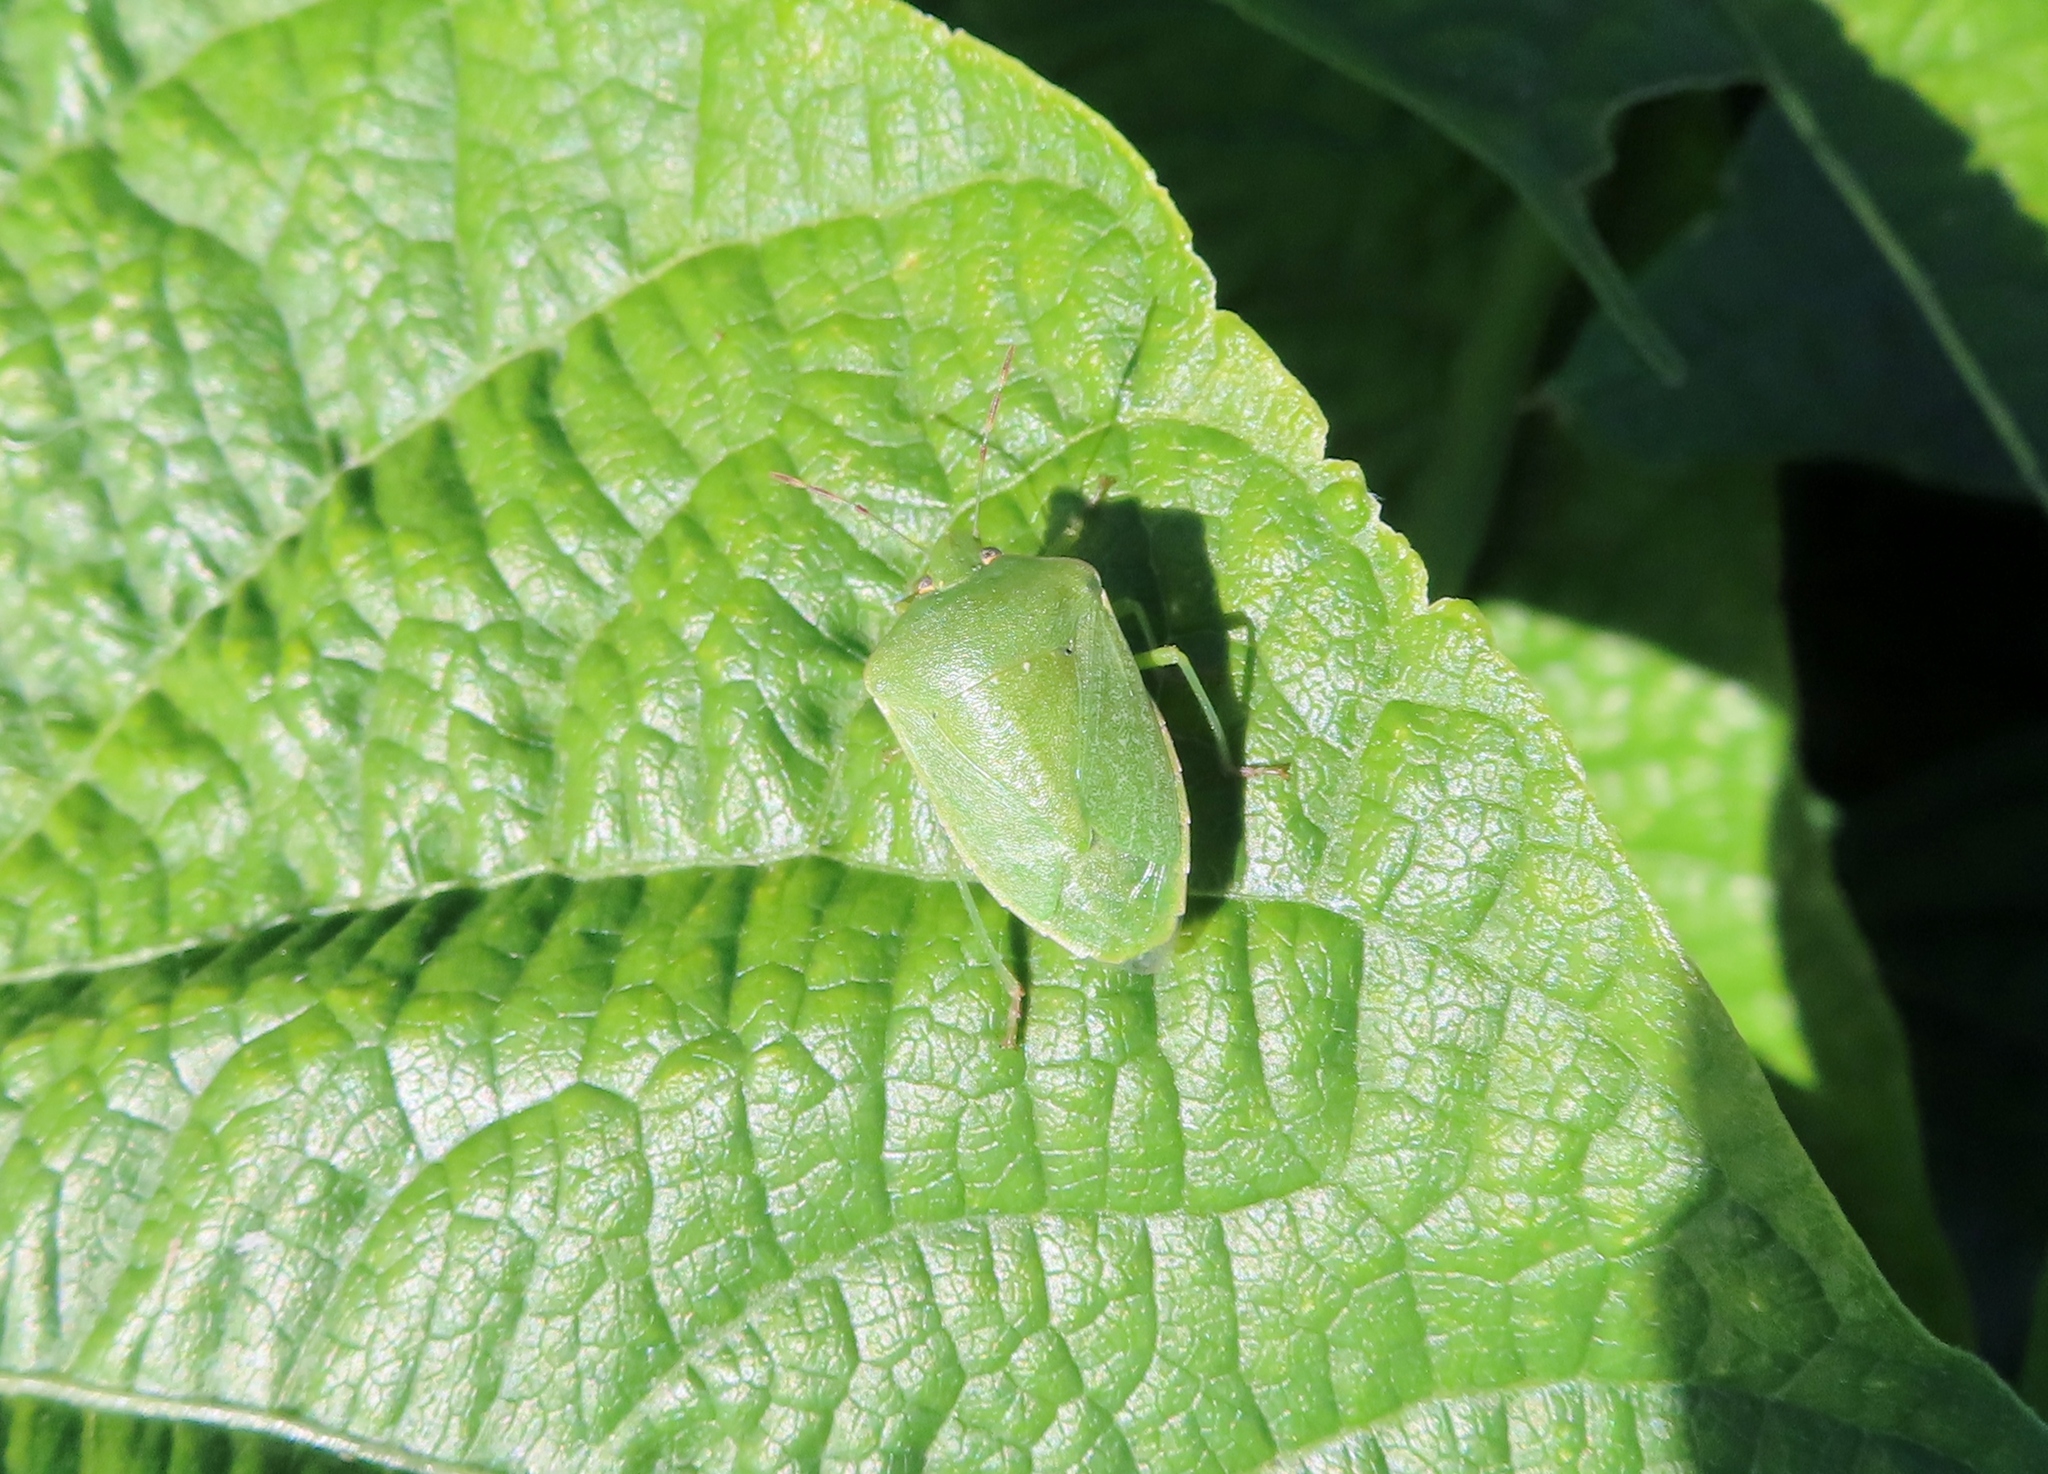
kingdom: Animalia
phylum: Arthropoda
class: Insecta
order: Hemiptera
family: Pentatomidae
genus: Nezara
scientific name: Nezara viridula
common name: Southern green stink bug
